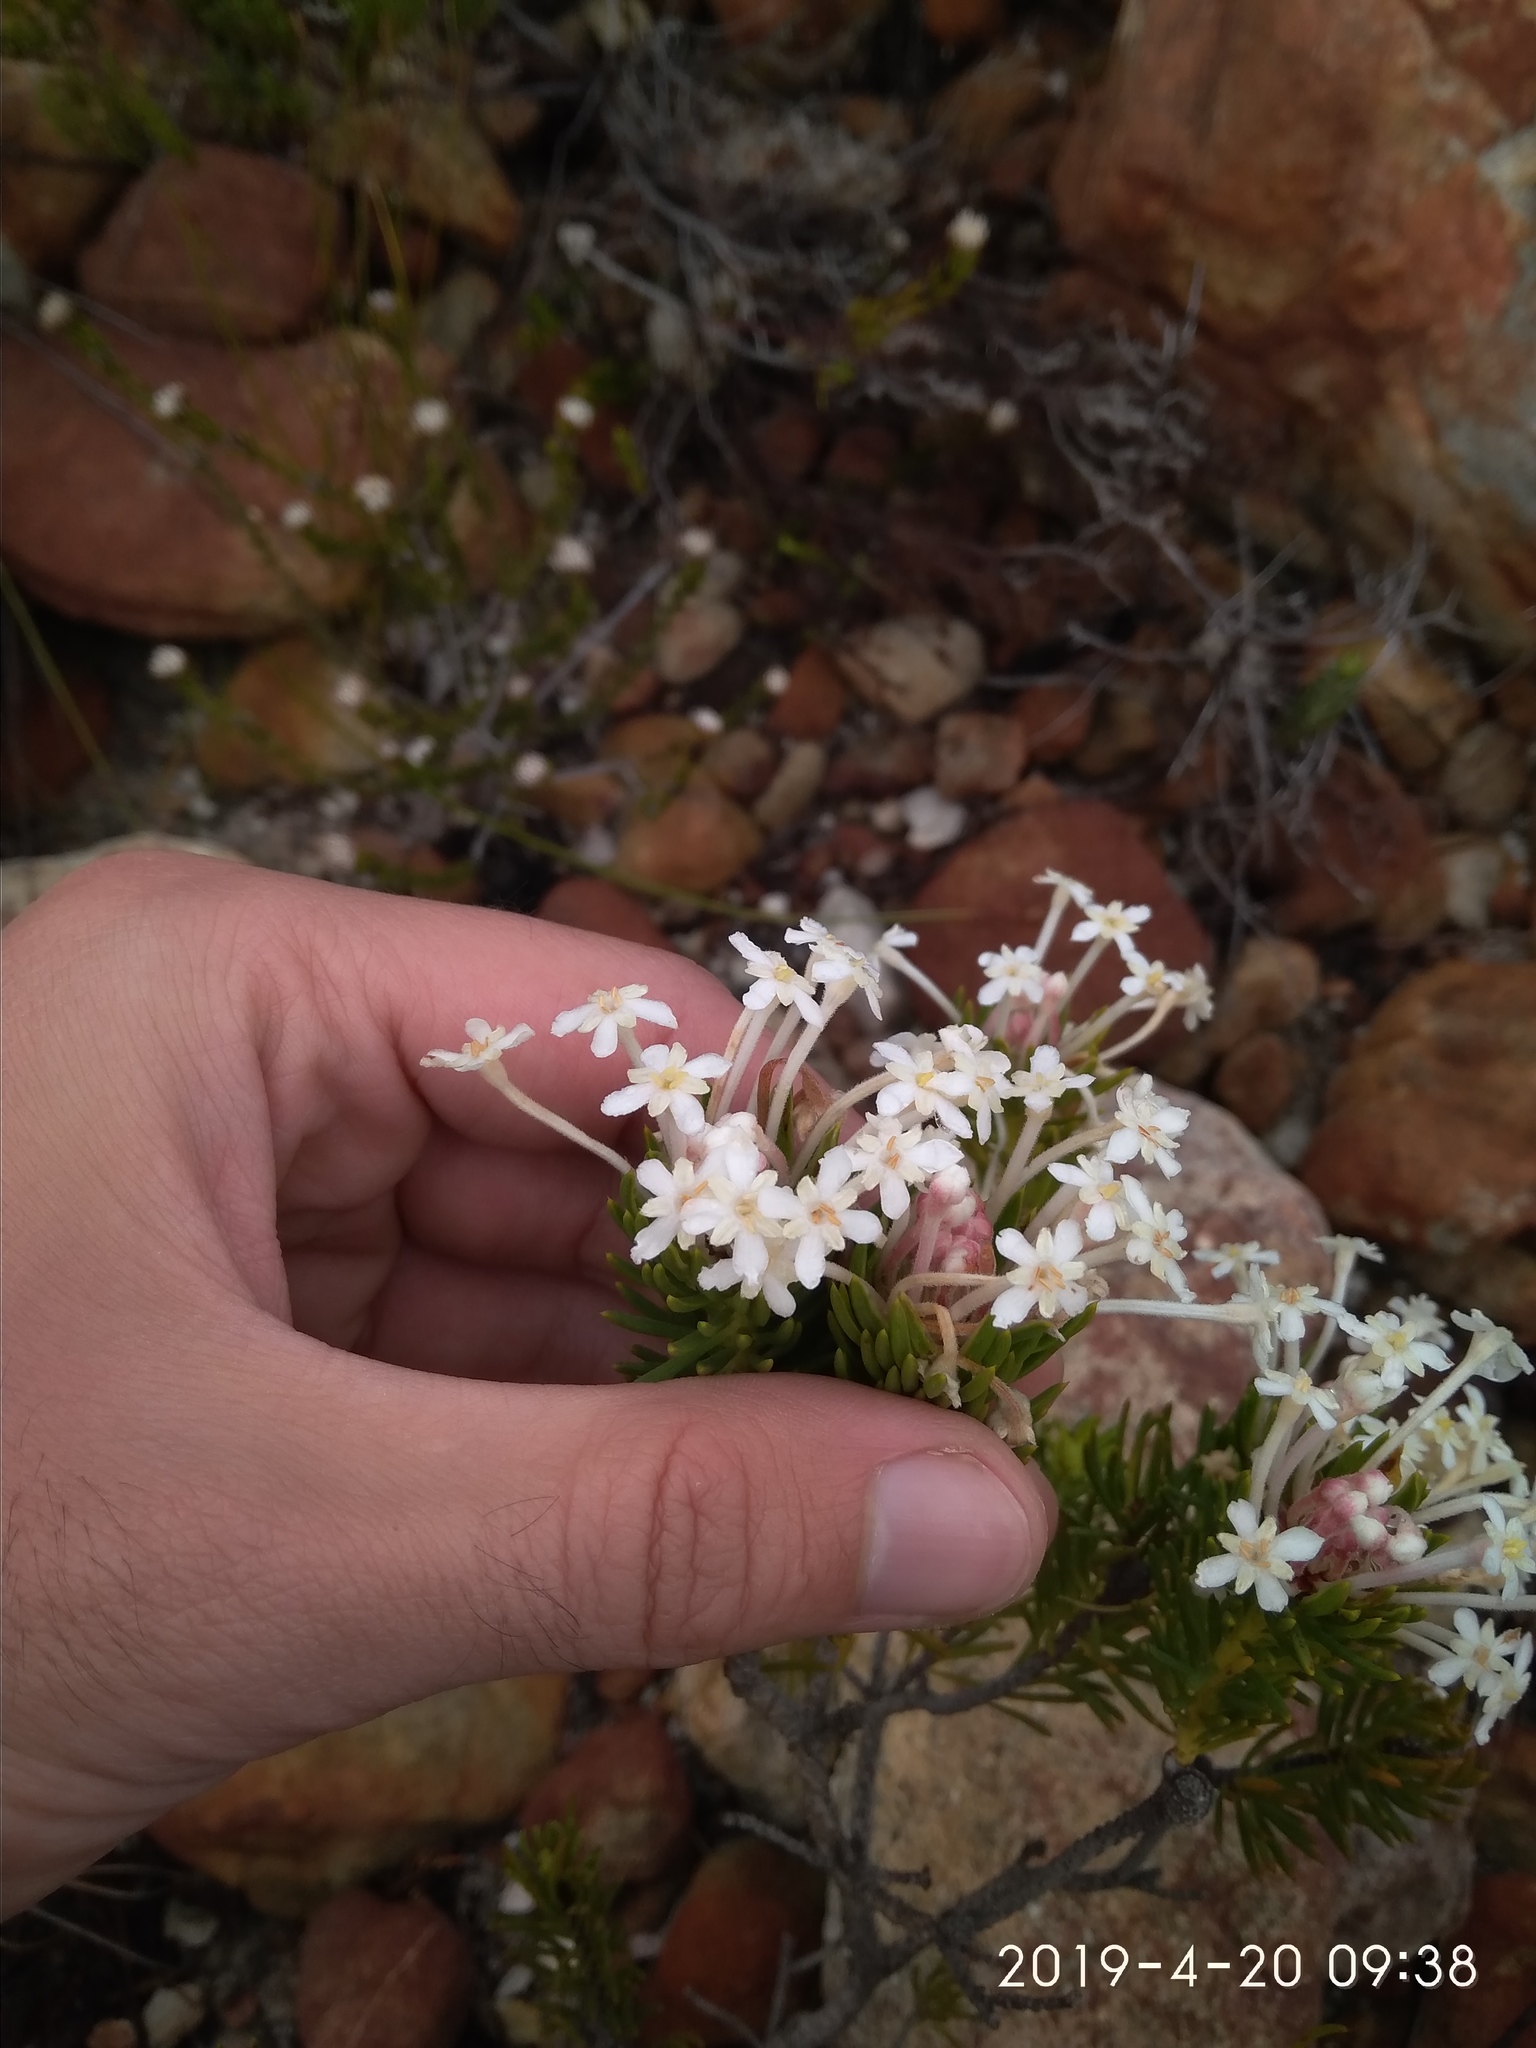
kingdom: Plantae
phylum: Tracheophyta
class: Magnoliopsida
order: Malvales
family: Thymelaeaceae
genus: Gnidia
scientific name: Gnidia pinifolia
